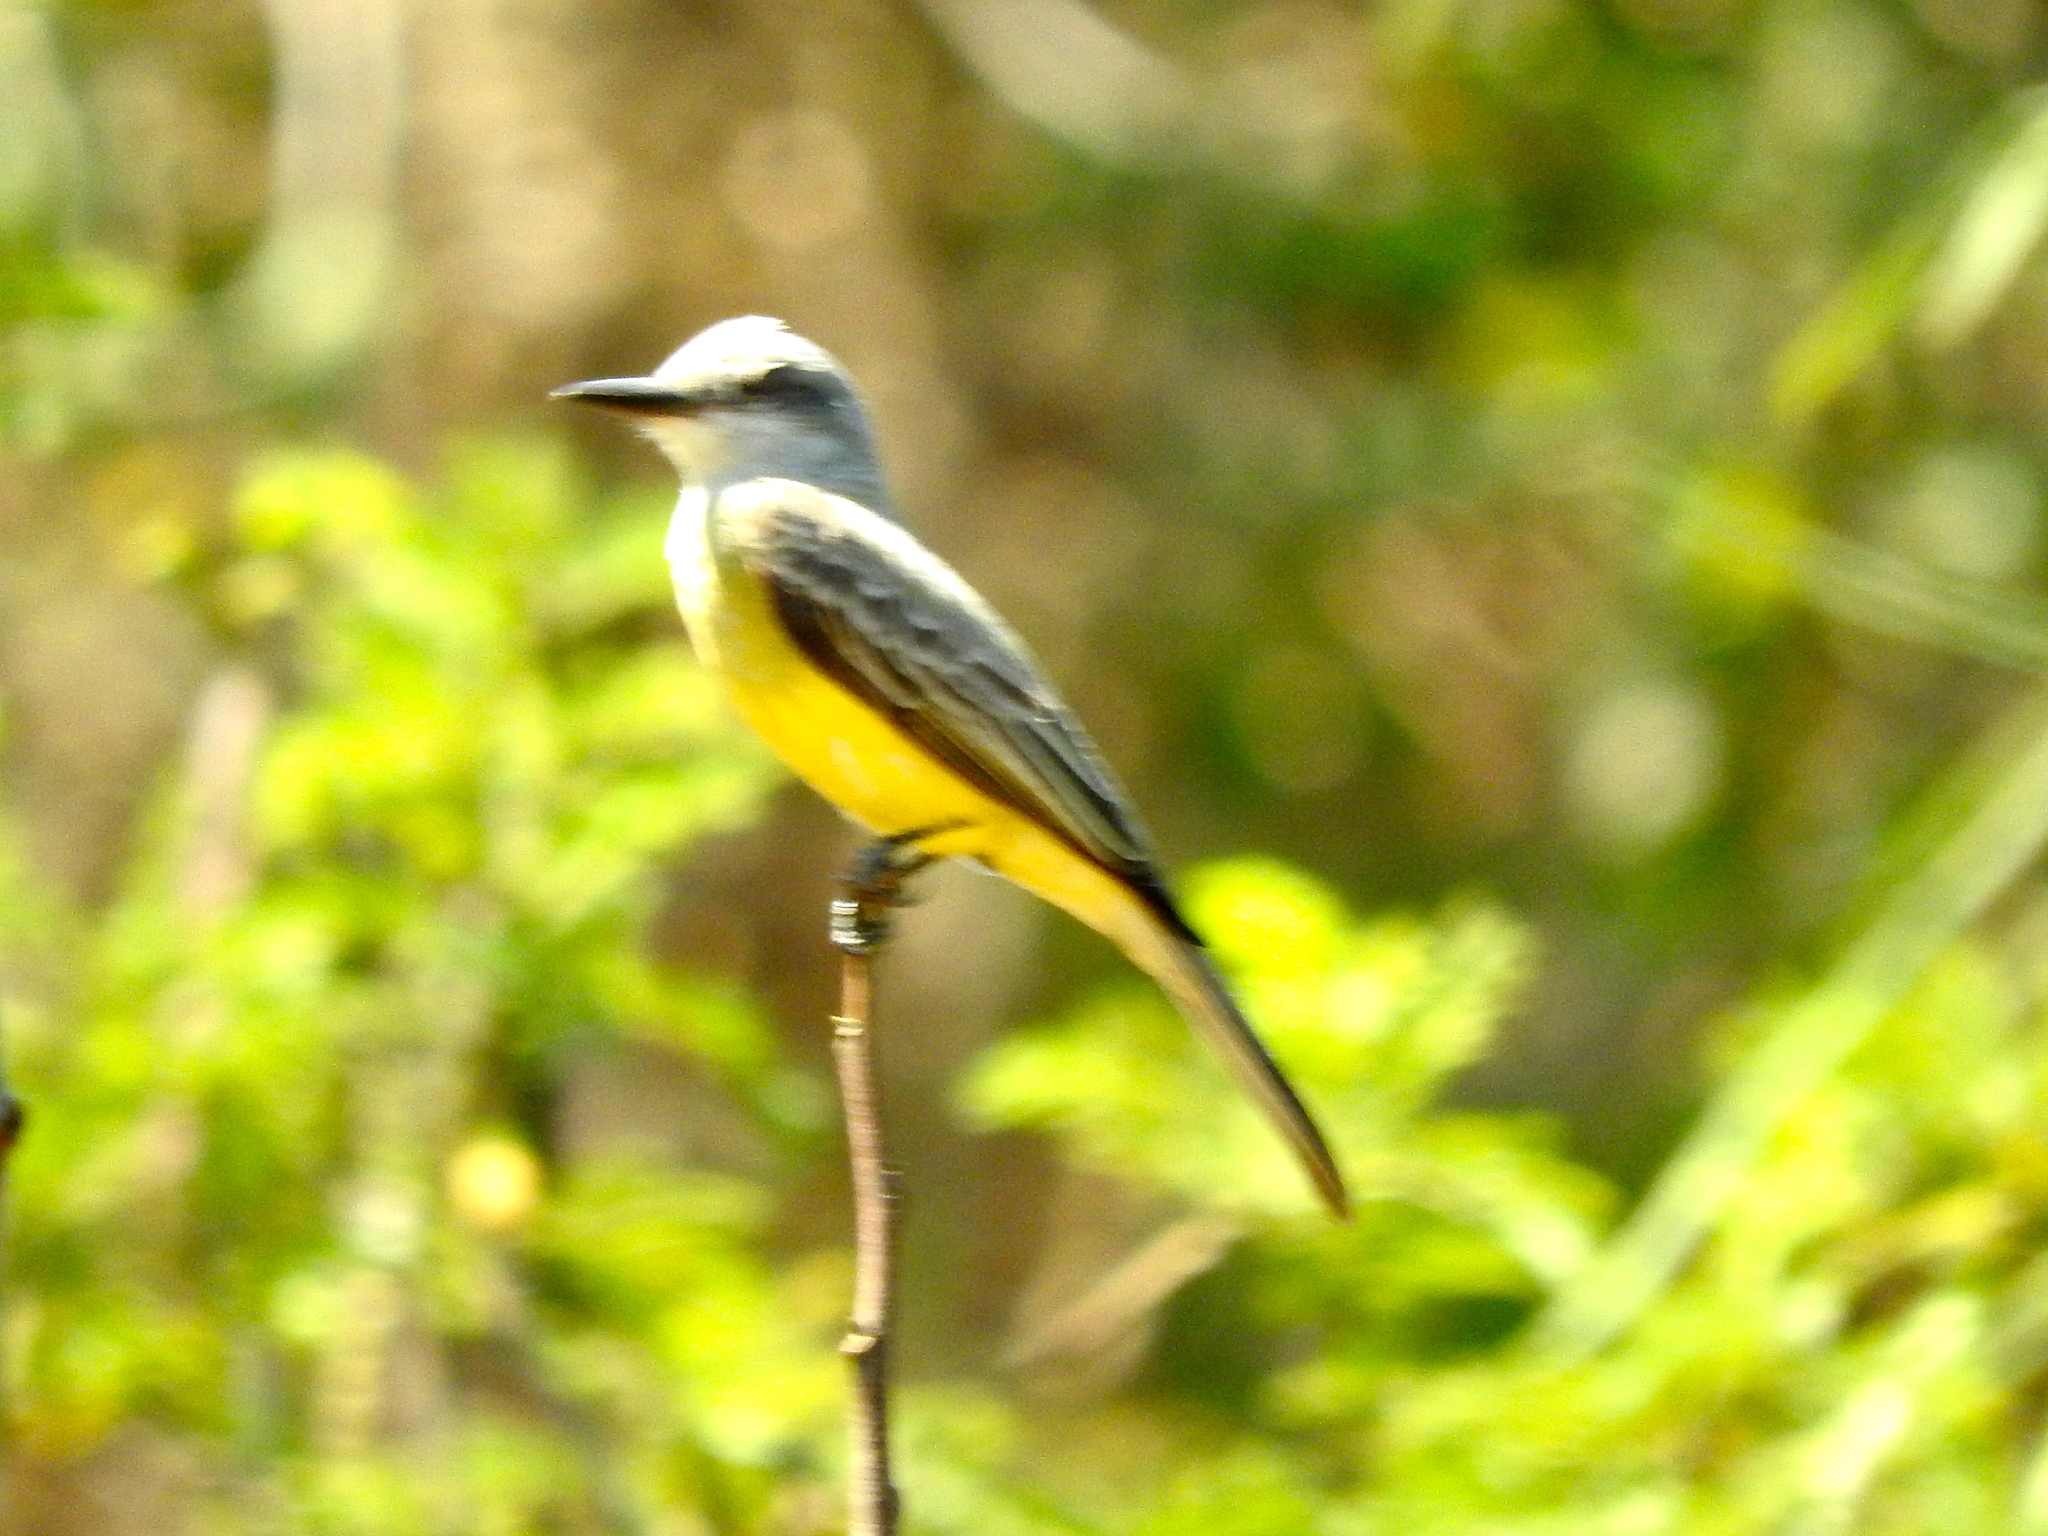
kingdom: Animalia
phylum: Chordata
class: Aves
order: Passeriformes
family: Tyrannidae
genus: Tyrannus
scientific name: Tyrannus melancholicus
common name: Tropical kingbird
